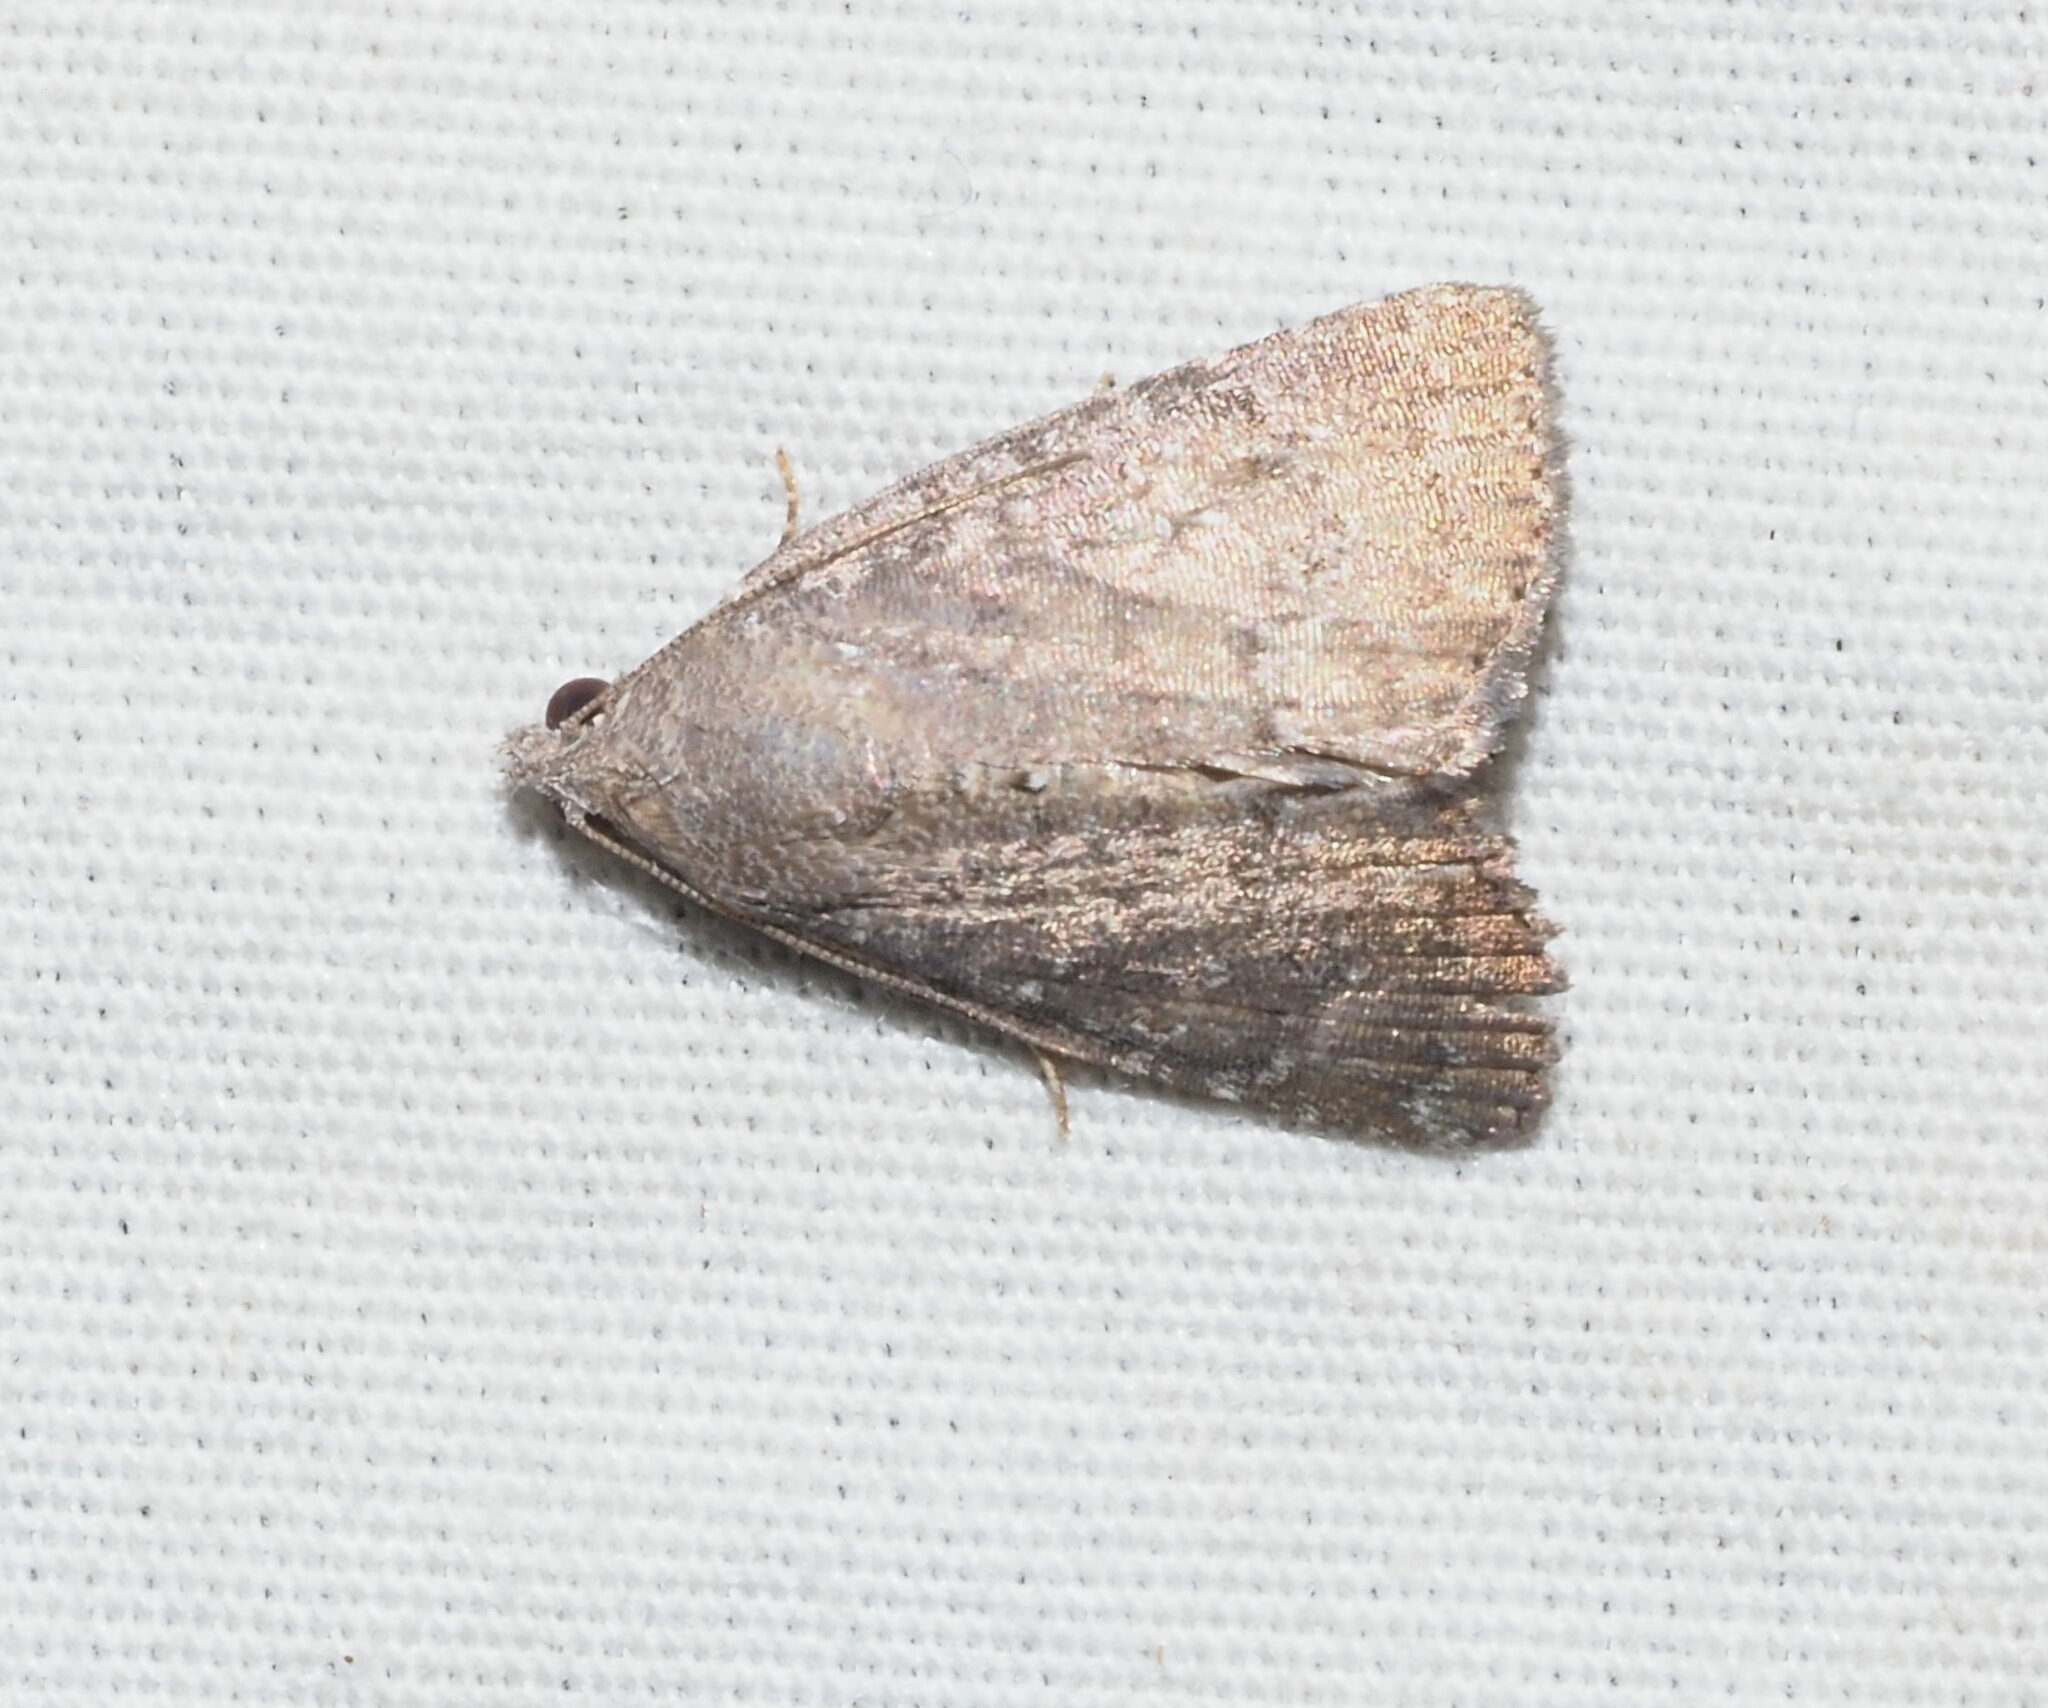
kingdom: Animalia
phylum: Arthropoda
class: Insecta
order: Lepidoptera
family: Noctuidae
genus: Amyna
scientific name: Amyna natalis
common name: Iiima moth
